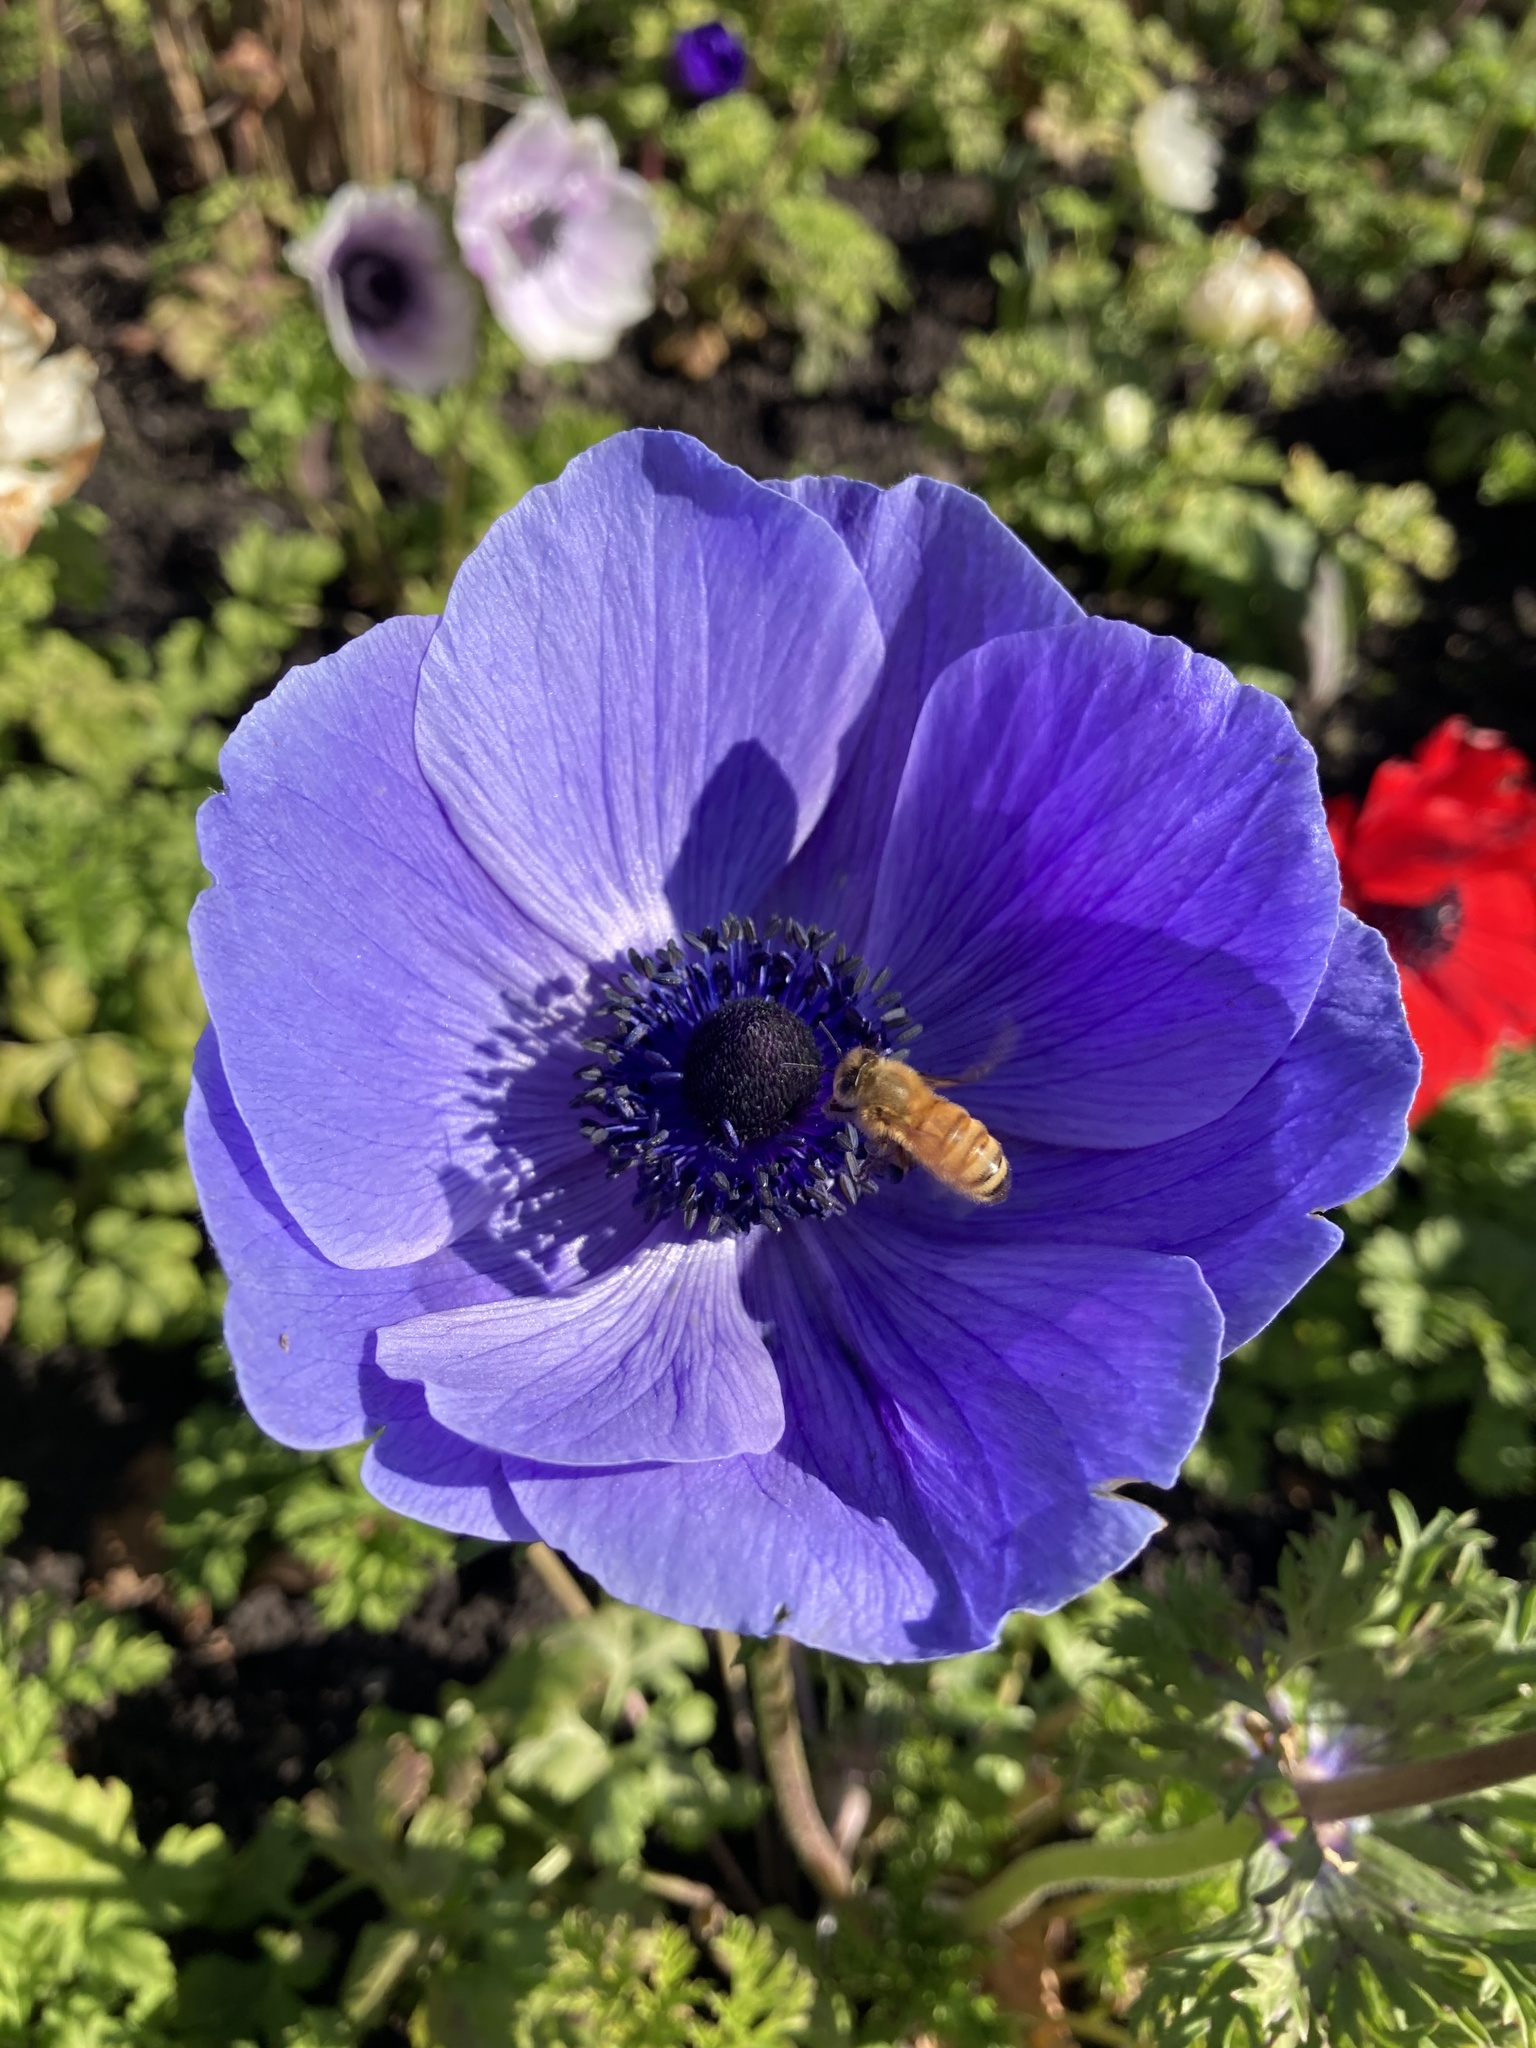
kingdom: Animalia
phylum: Arthropoda
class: Insecta
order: Hymenoptera
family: Apidae
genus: Apis
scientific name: Apis mellifera
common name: Honey bee
